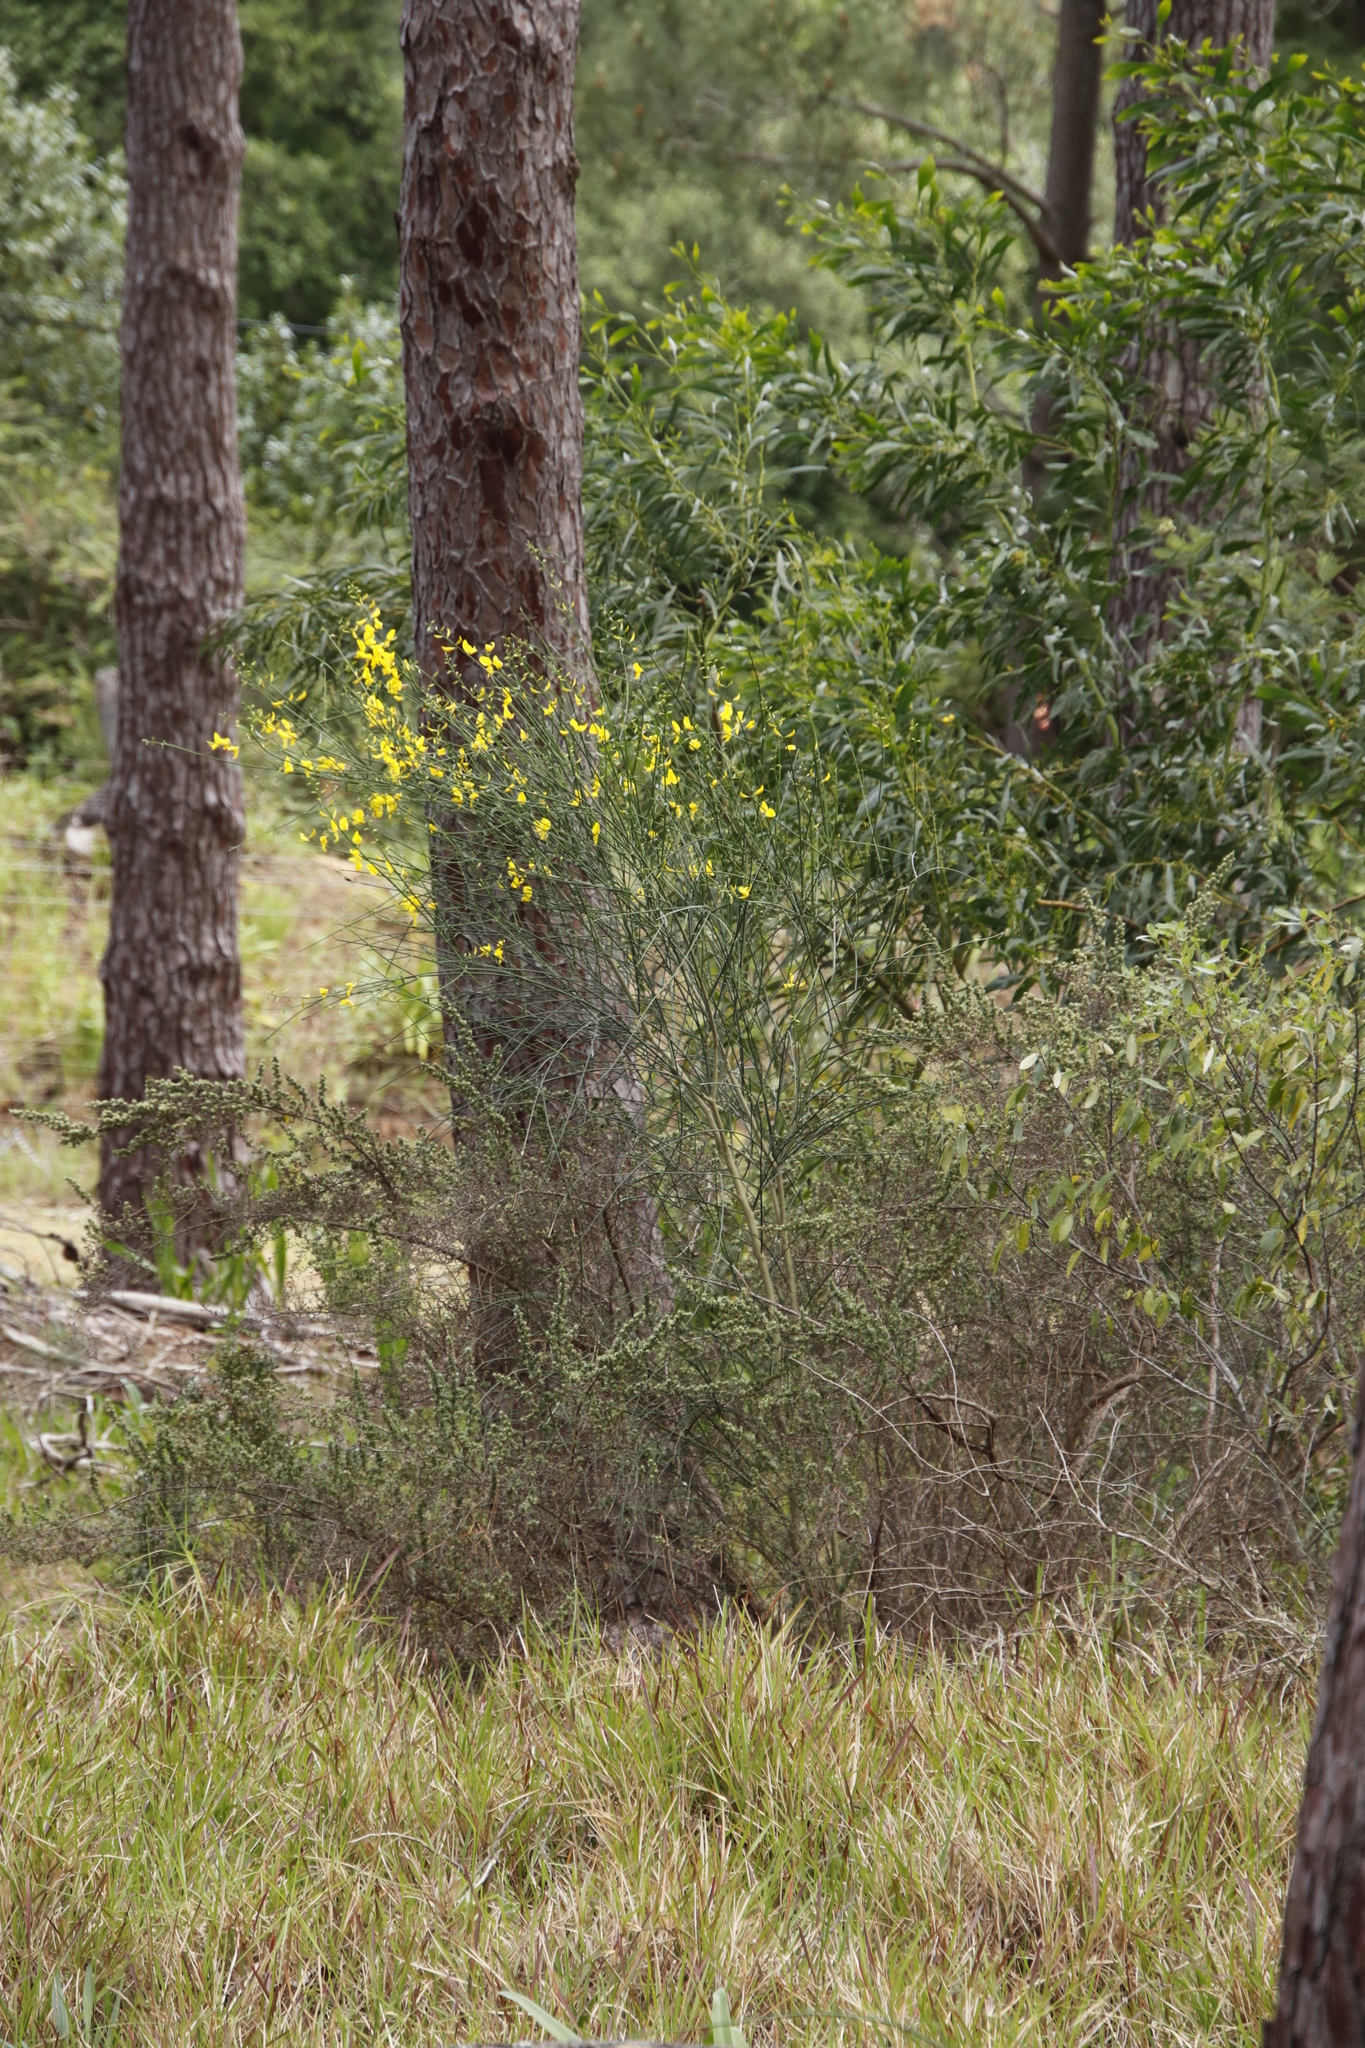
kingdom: Plantae
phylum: Tracheophyta
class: Magnoliopsida
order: Fabales
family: Fabaceae
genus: Spartium
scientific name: Spartium junceum
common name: Spanish broom
